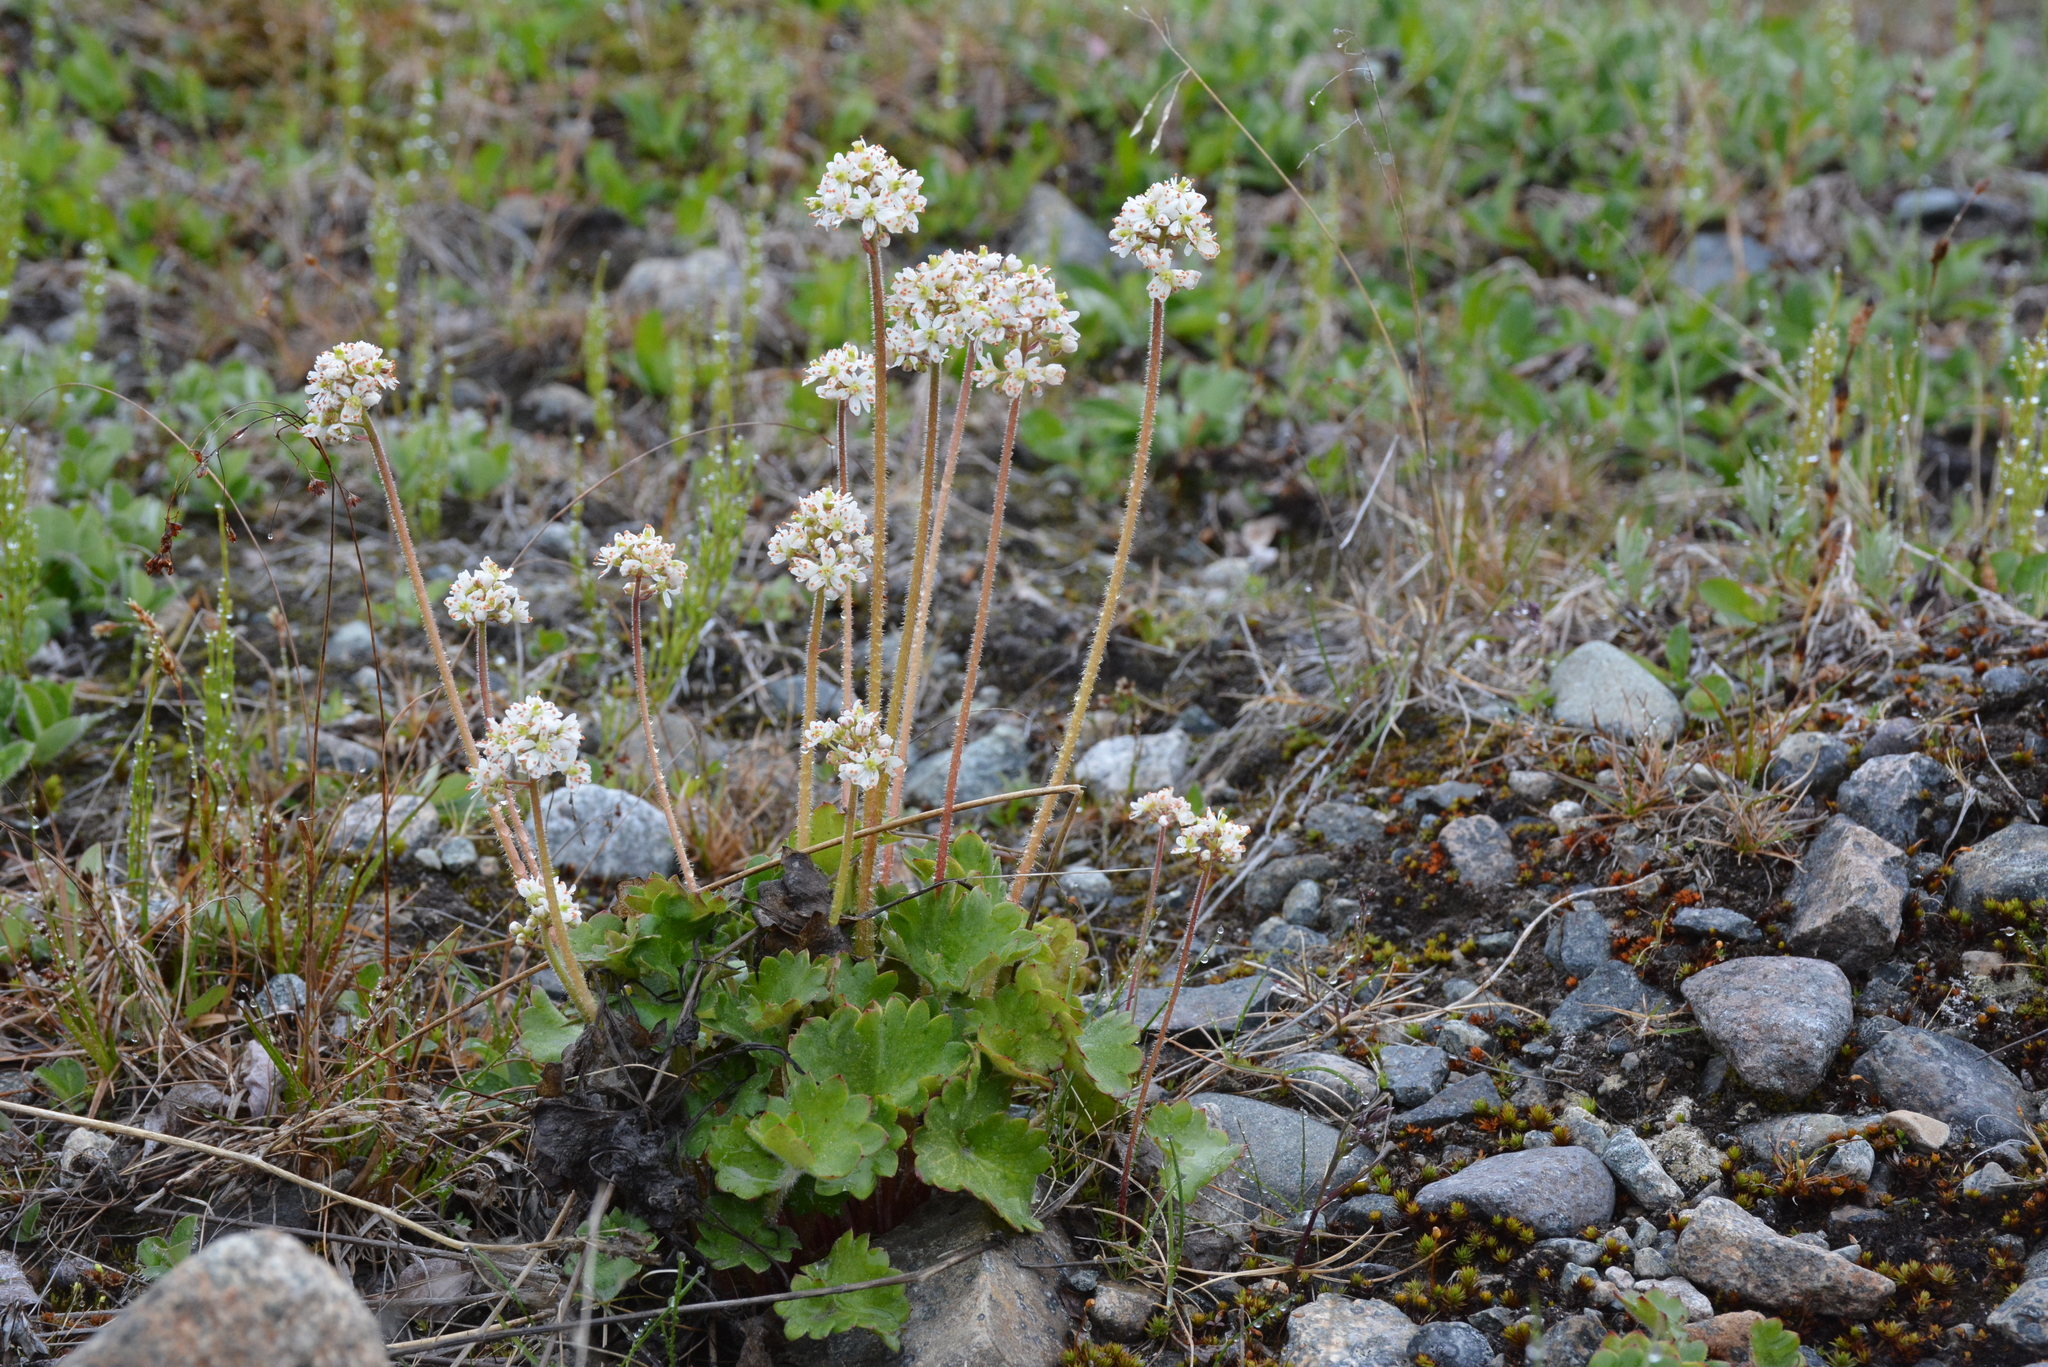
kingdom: Plantae
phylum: Tracheophyta
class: Magnoliopsida
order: Saxifragales
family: Saxifragaceae
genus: Micranthes
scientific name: Micranthes nelsoniana
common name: Nelson's saxifrage
